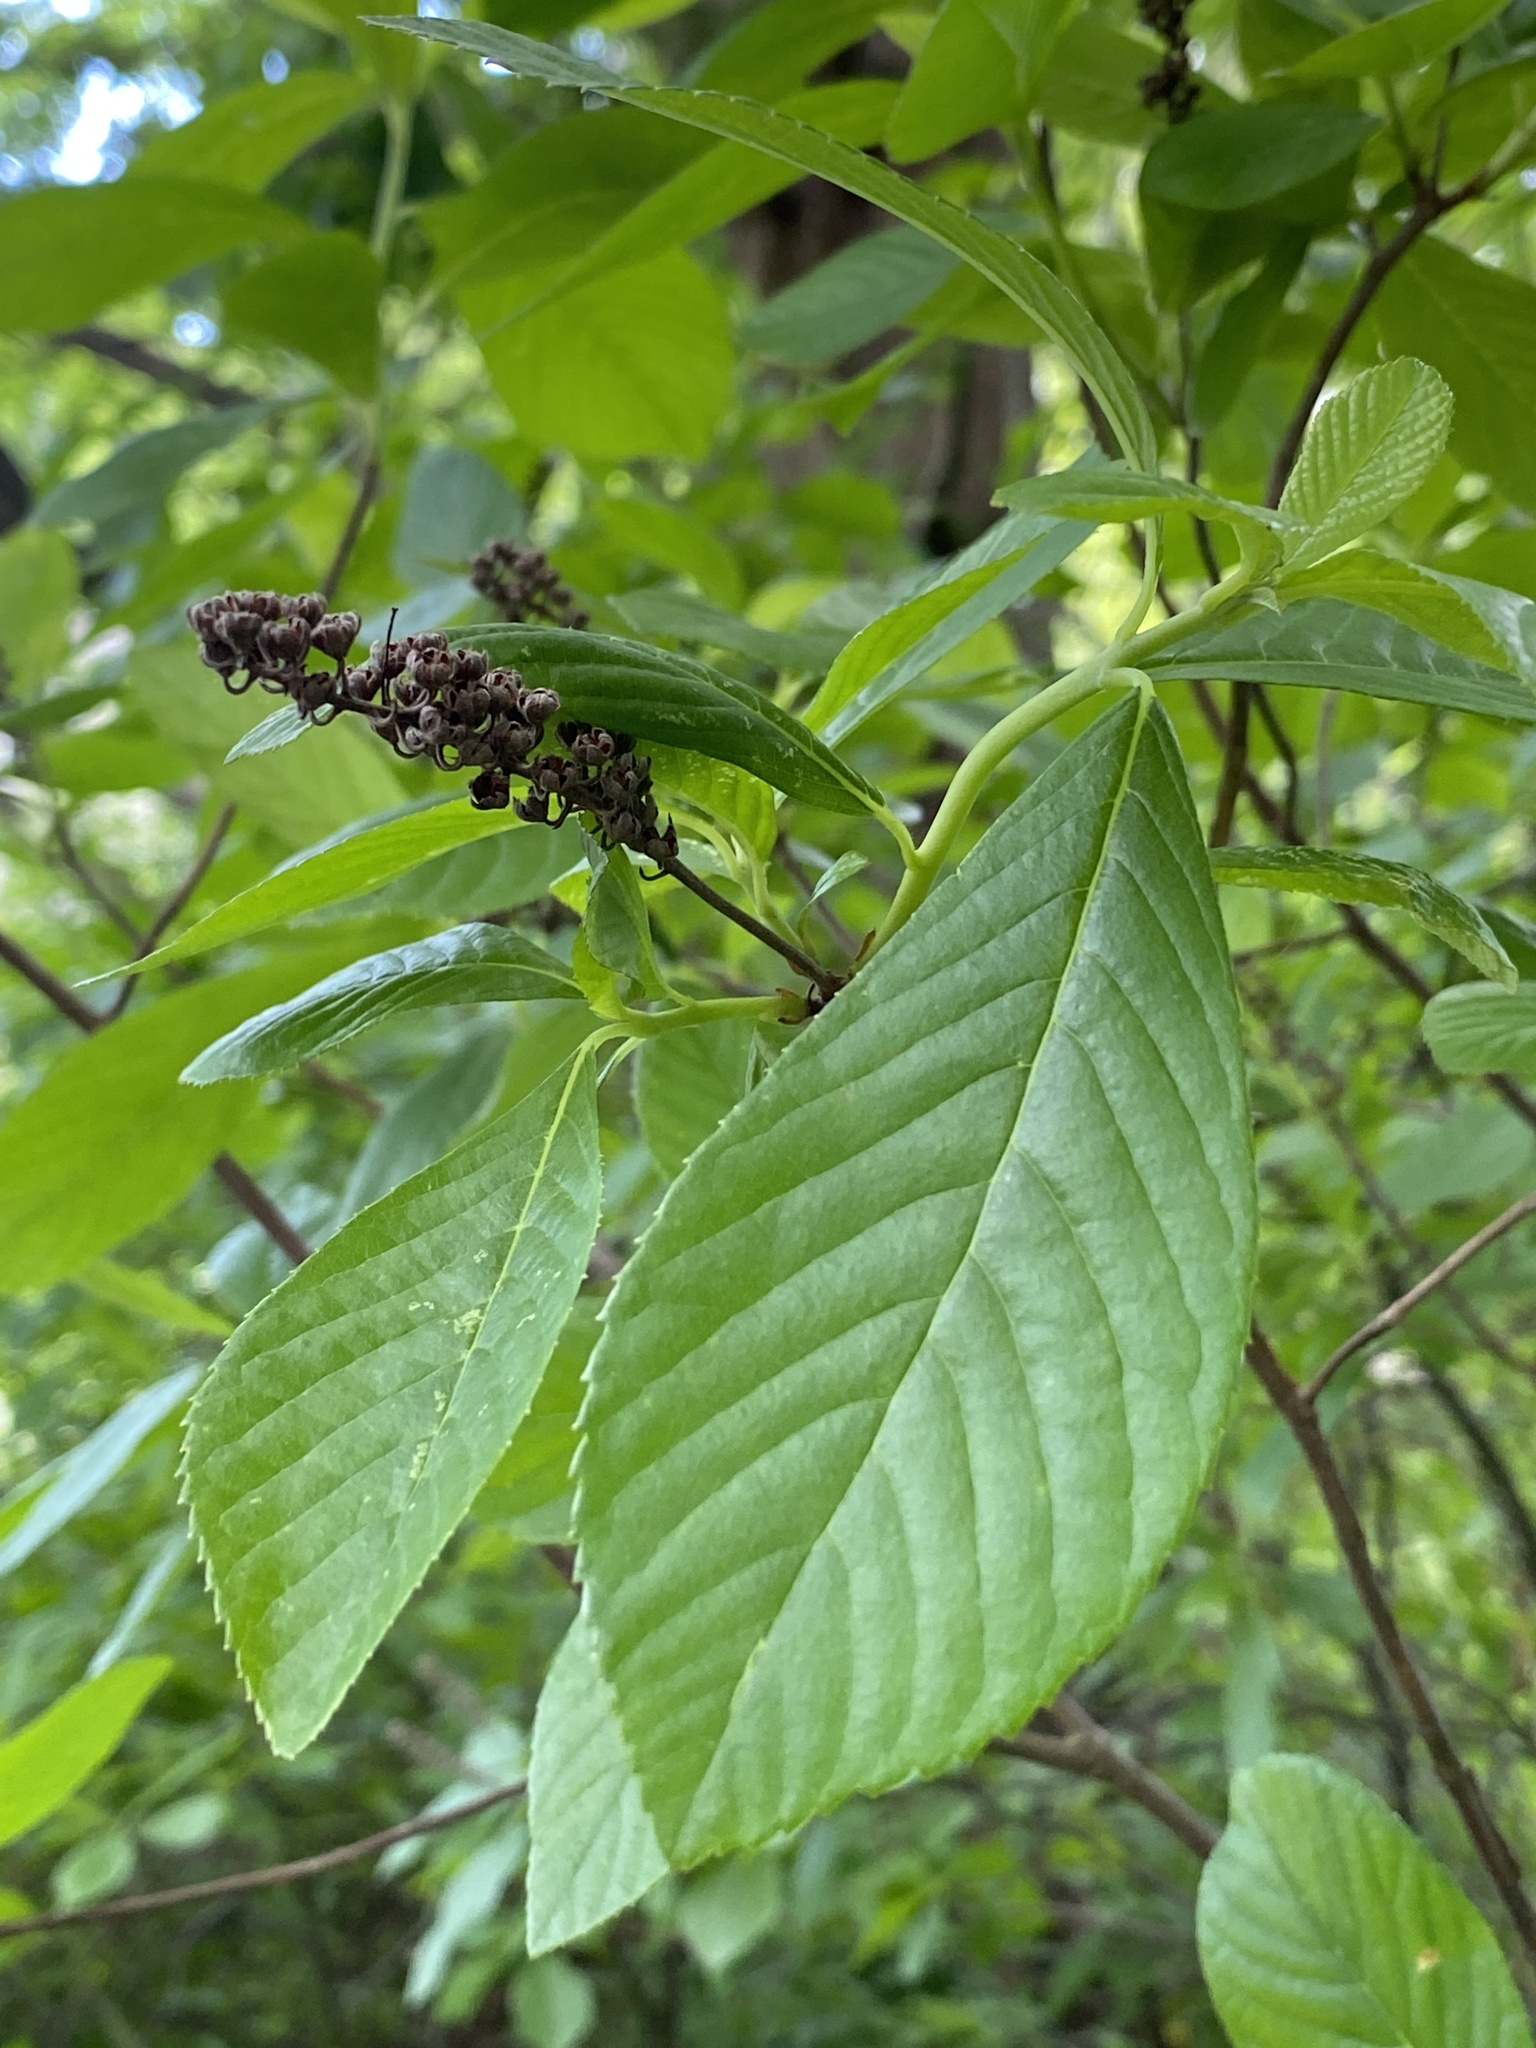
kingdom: Plantae
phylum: Tracheophyta
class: Magnoliopsida
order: Ericales
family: Clethraceae
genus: Clethra
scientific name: Clethra alnifolia
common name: Sweet pepperbush
